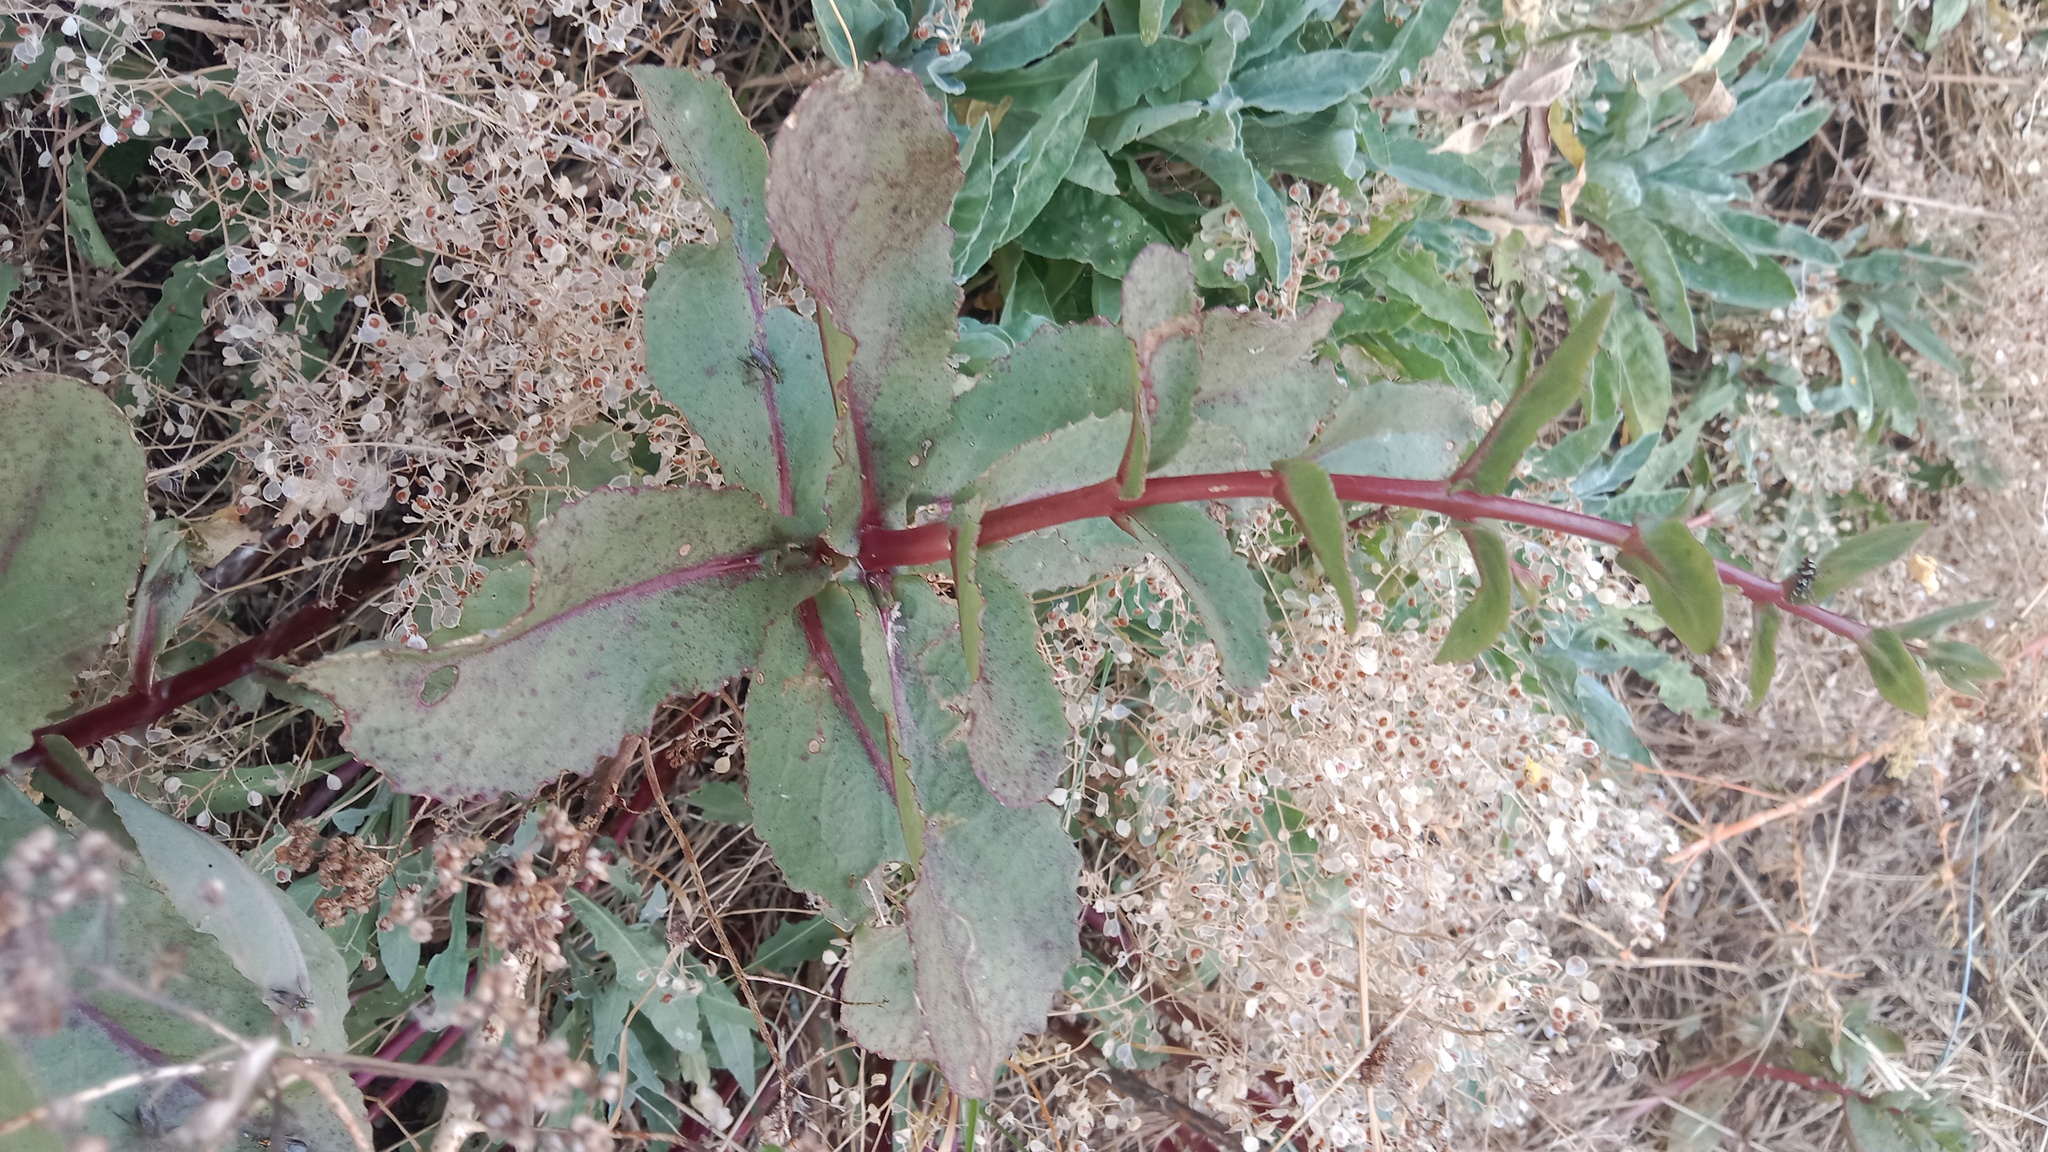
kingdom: Plantae
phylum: Tracheophyta
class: Magnoliopsida
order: Saxifragales
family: Crassulaceae
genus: Hylotelephium
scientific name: Hylotelephium maximum
